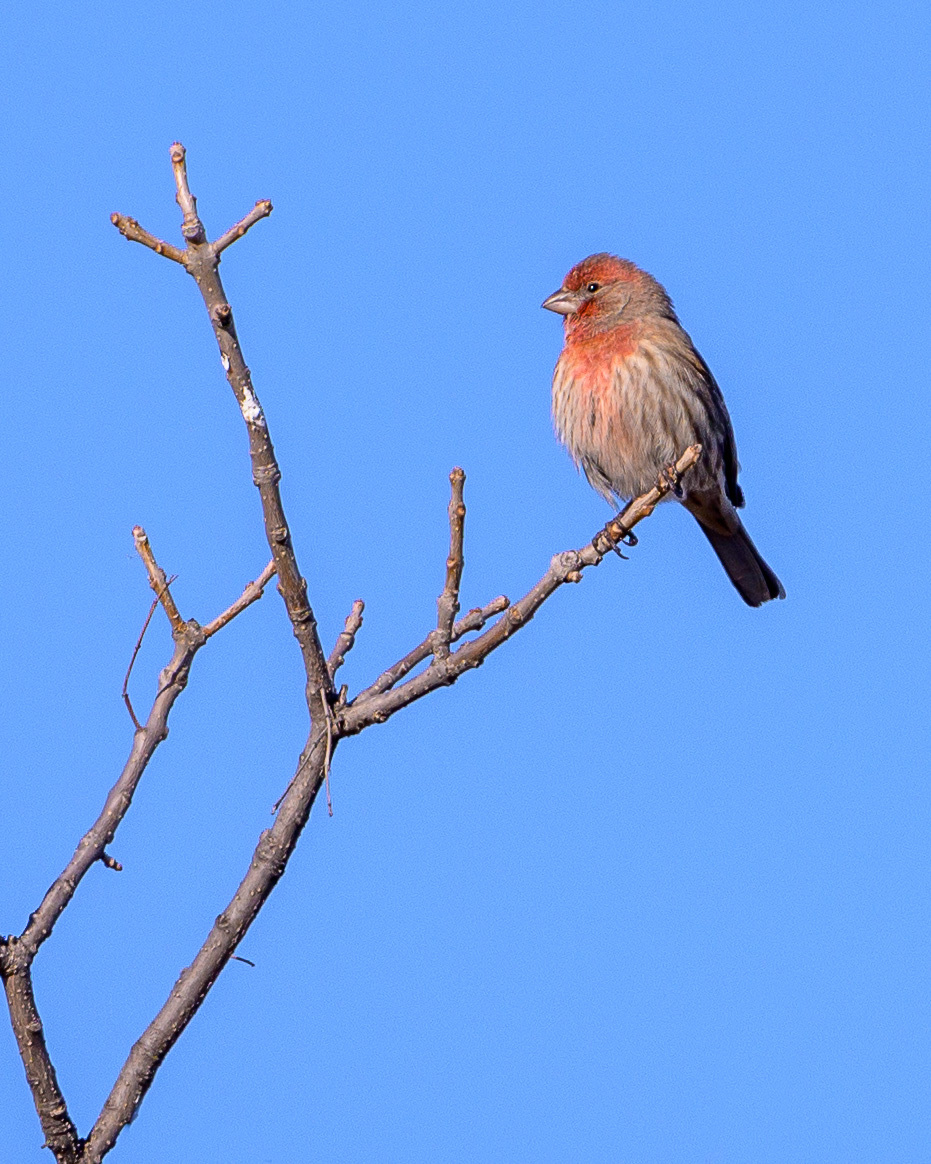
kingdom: Animalia
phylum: Chordata
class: Aves
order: Passeriformes
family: Fringillidae
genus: Haemorhous
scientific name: Haemorhous mexicanus
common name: House finch
